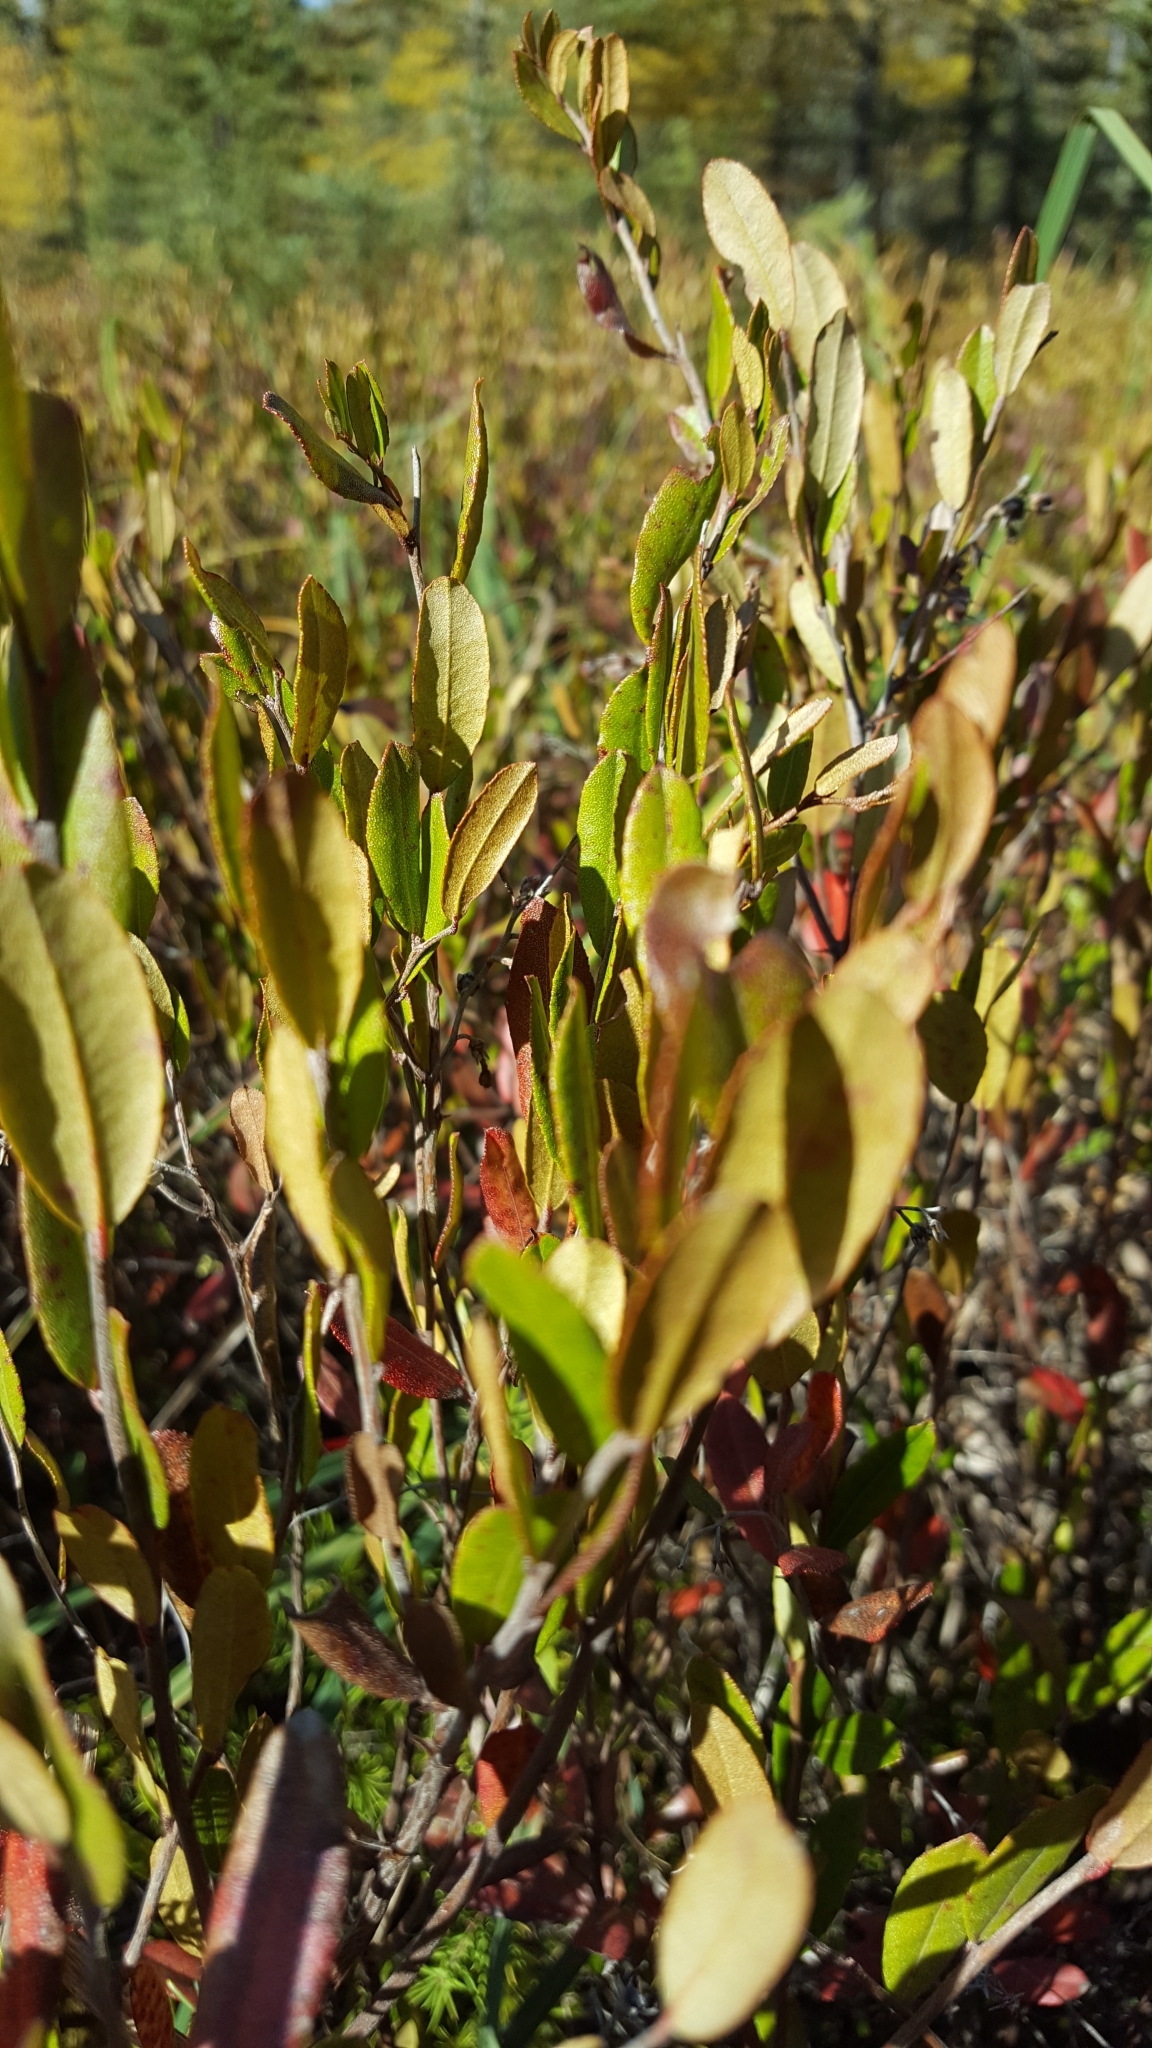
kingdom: Plantae
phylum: Tracheophyta
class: Magnoliopsida
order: Ericales
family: Ericaceae
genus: Chamaedaphne
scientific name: Chamaedaphne calyculata
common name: Leatherleaf
